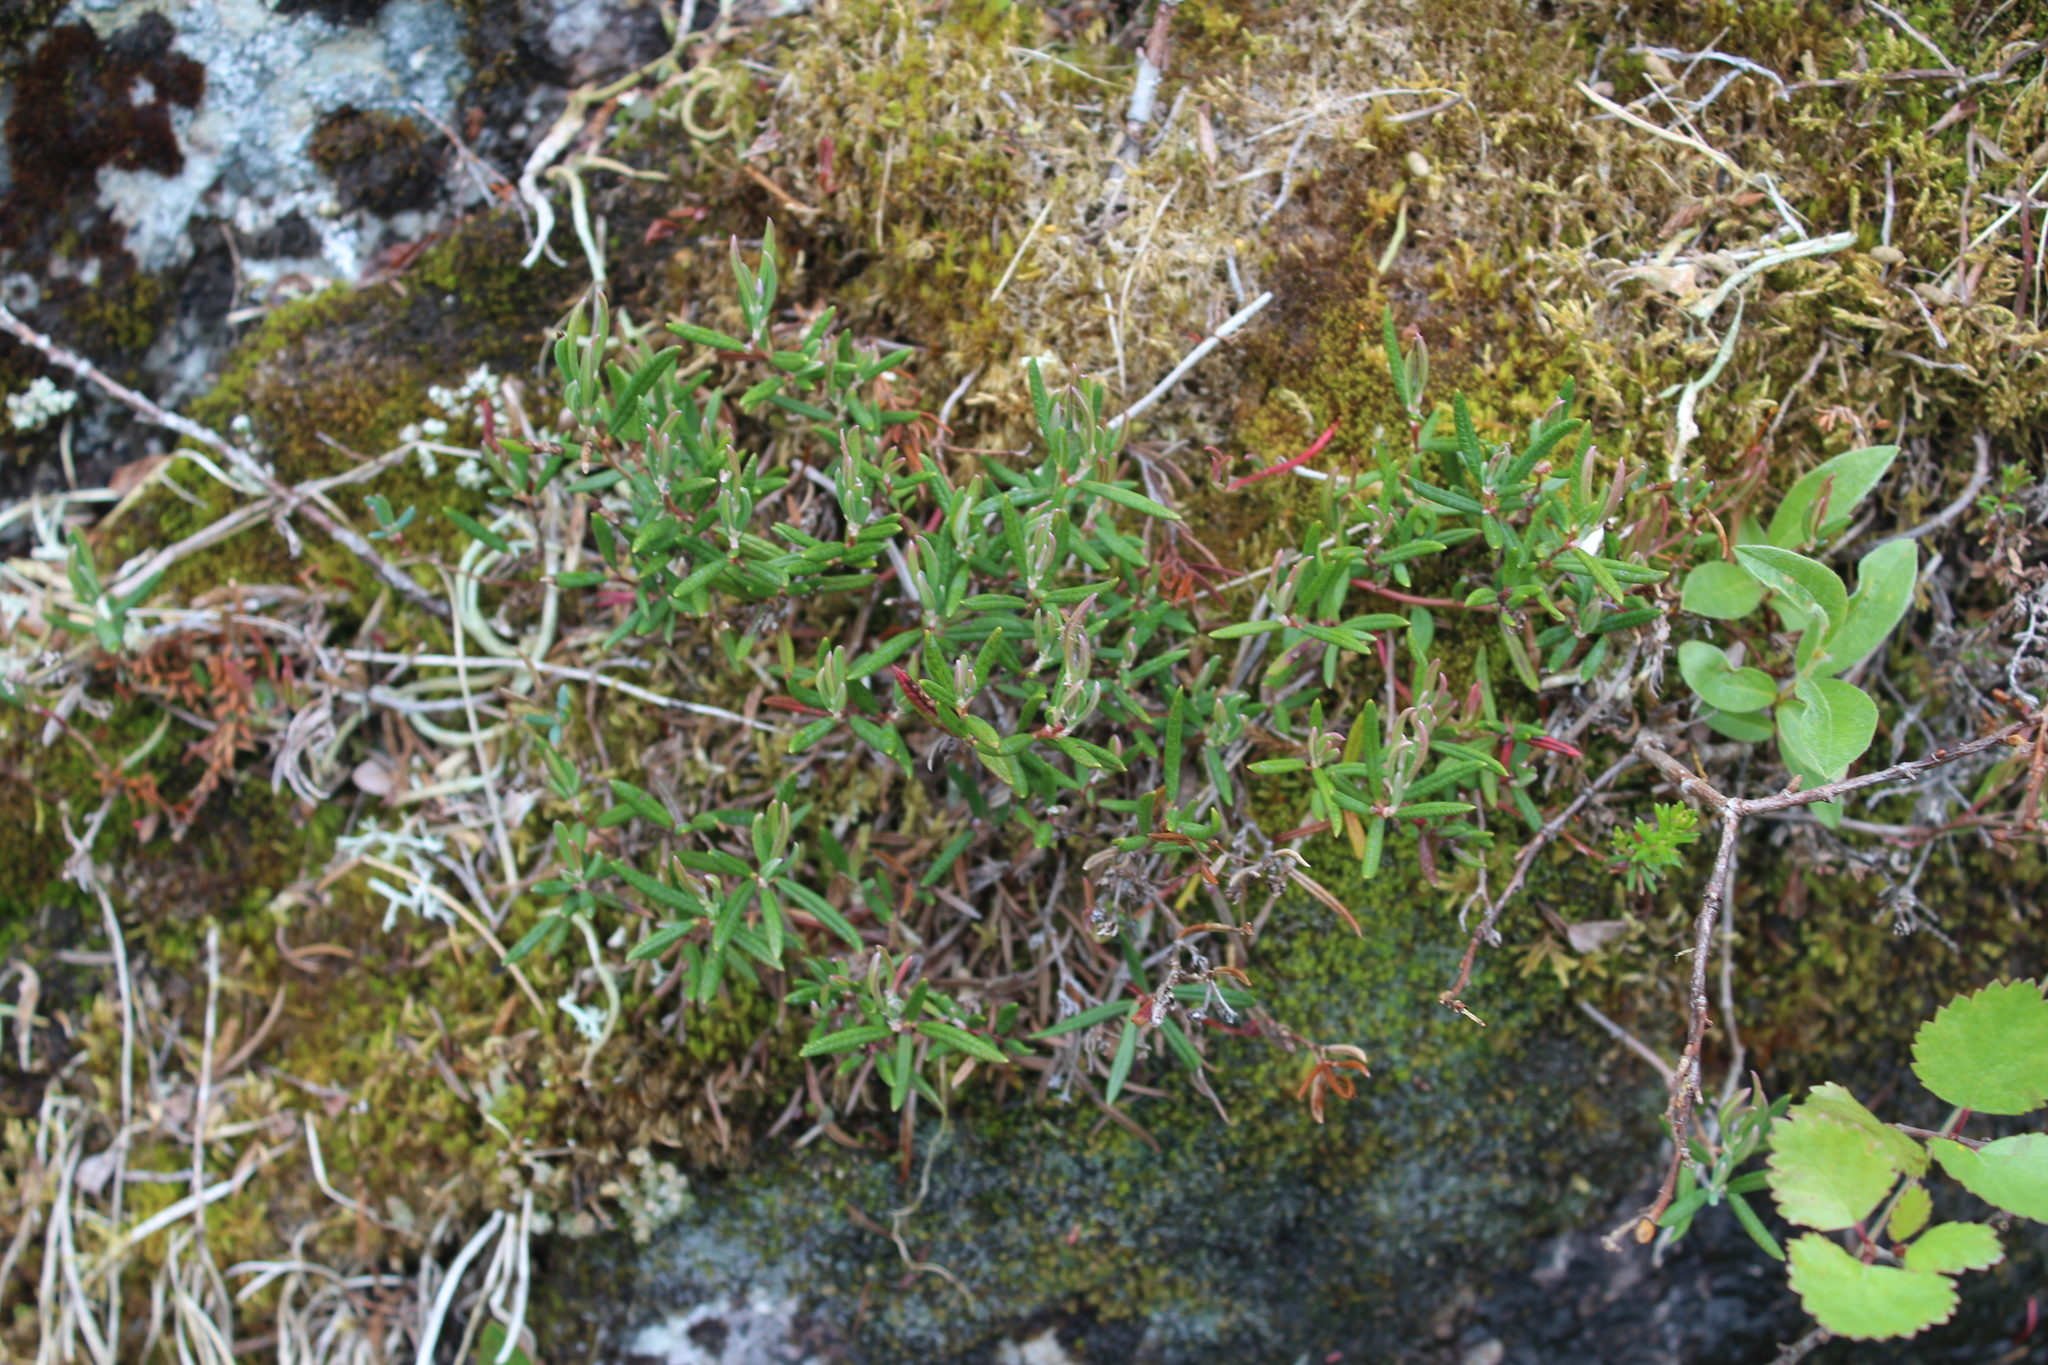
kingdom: Plantae
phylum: Tracheophyta
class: Magnoliopsida
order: Ericales
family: Ericaceae
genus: Andromeda
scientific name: Andromeda polifolia
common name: Bog-rosemary
